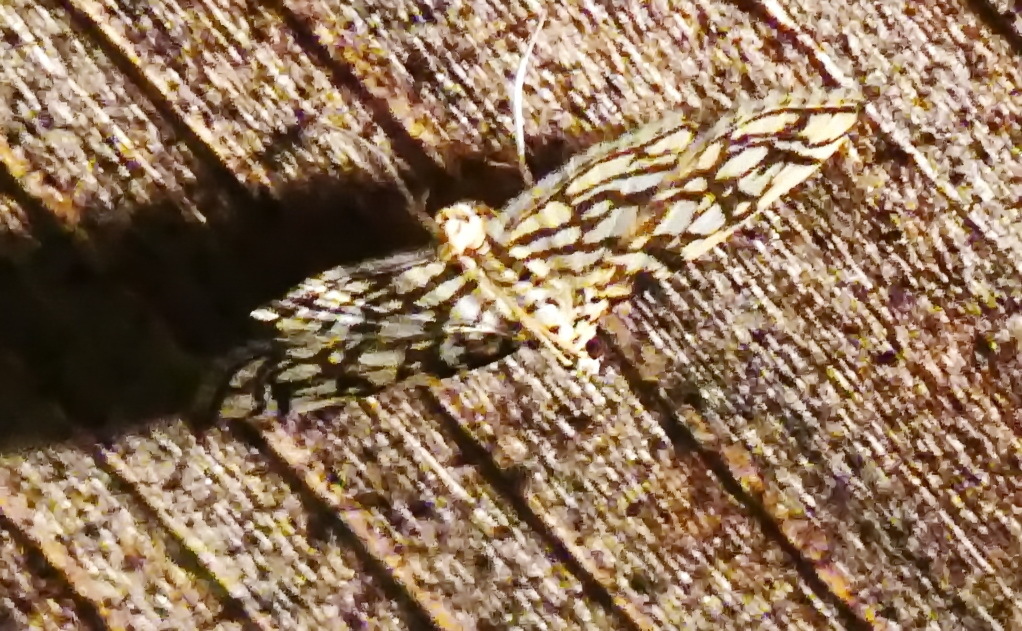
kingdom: Animalia
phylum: Arthropoda
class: Insecta
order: Lepidoptera
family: Crambidae
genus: Lygropia
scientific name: Lygropia rivulalis
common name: Bog lygropia moth
